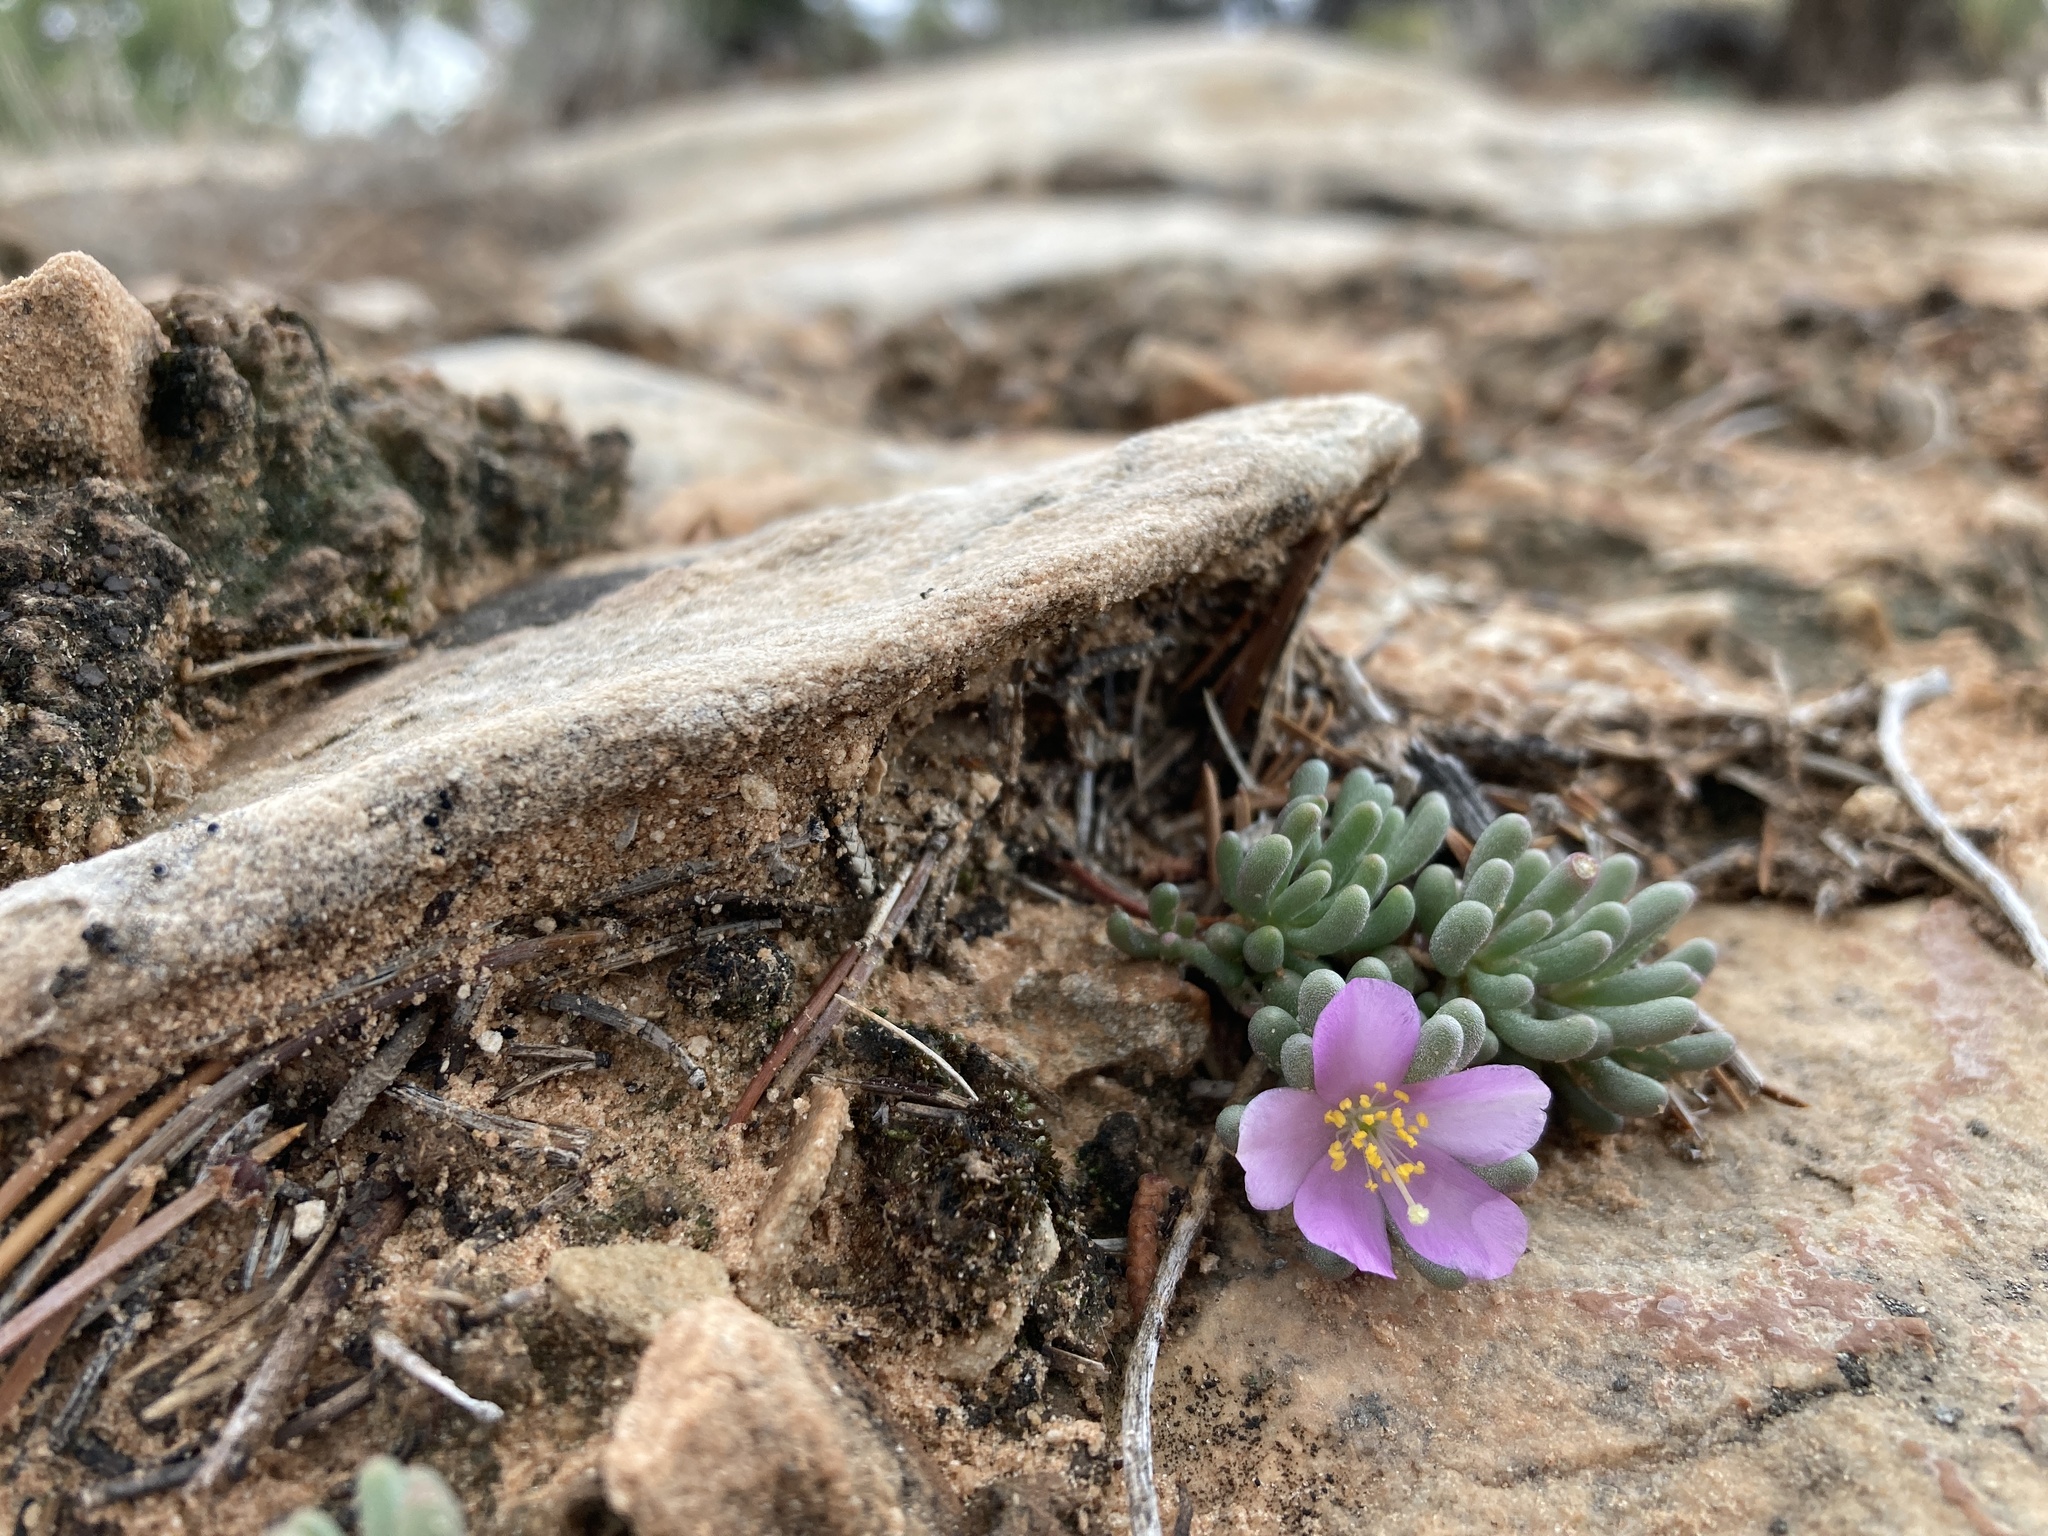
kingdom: Plantae
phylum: Tracheophyta
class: Magnoliopsida
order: Caryophyllales
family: Montiaceae
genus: Phemeranthus
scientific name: Phemeranthus brevifolius
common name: Pygmy fameflower
